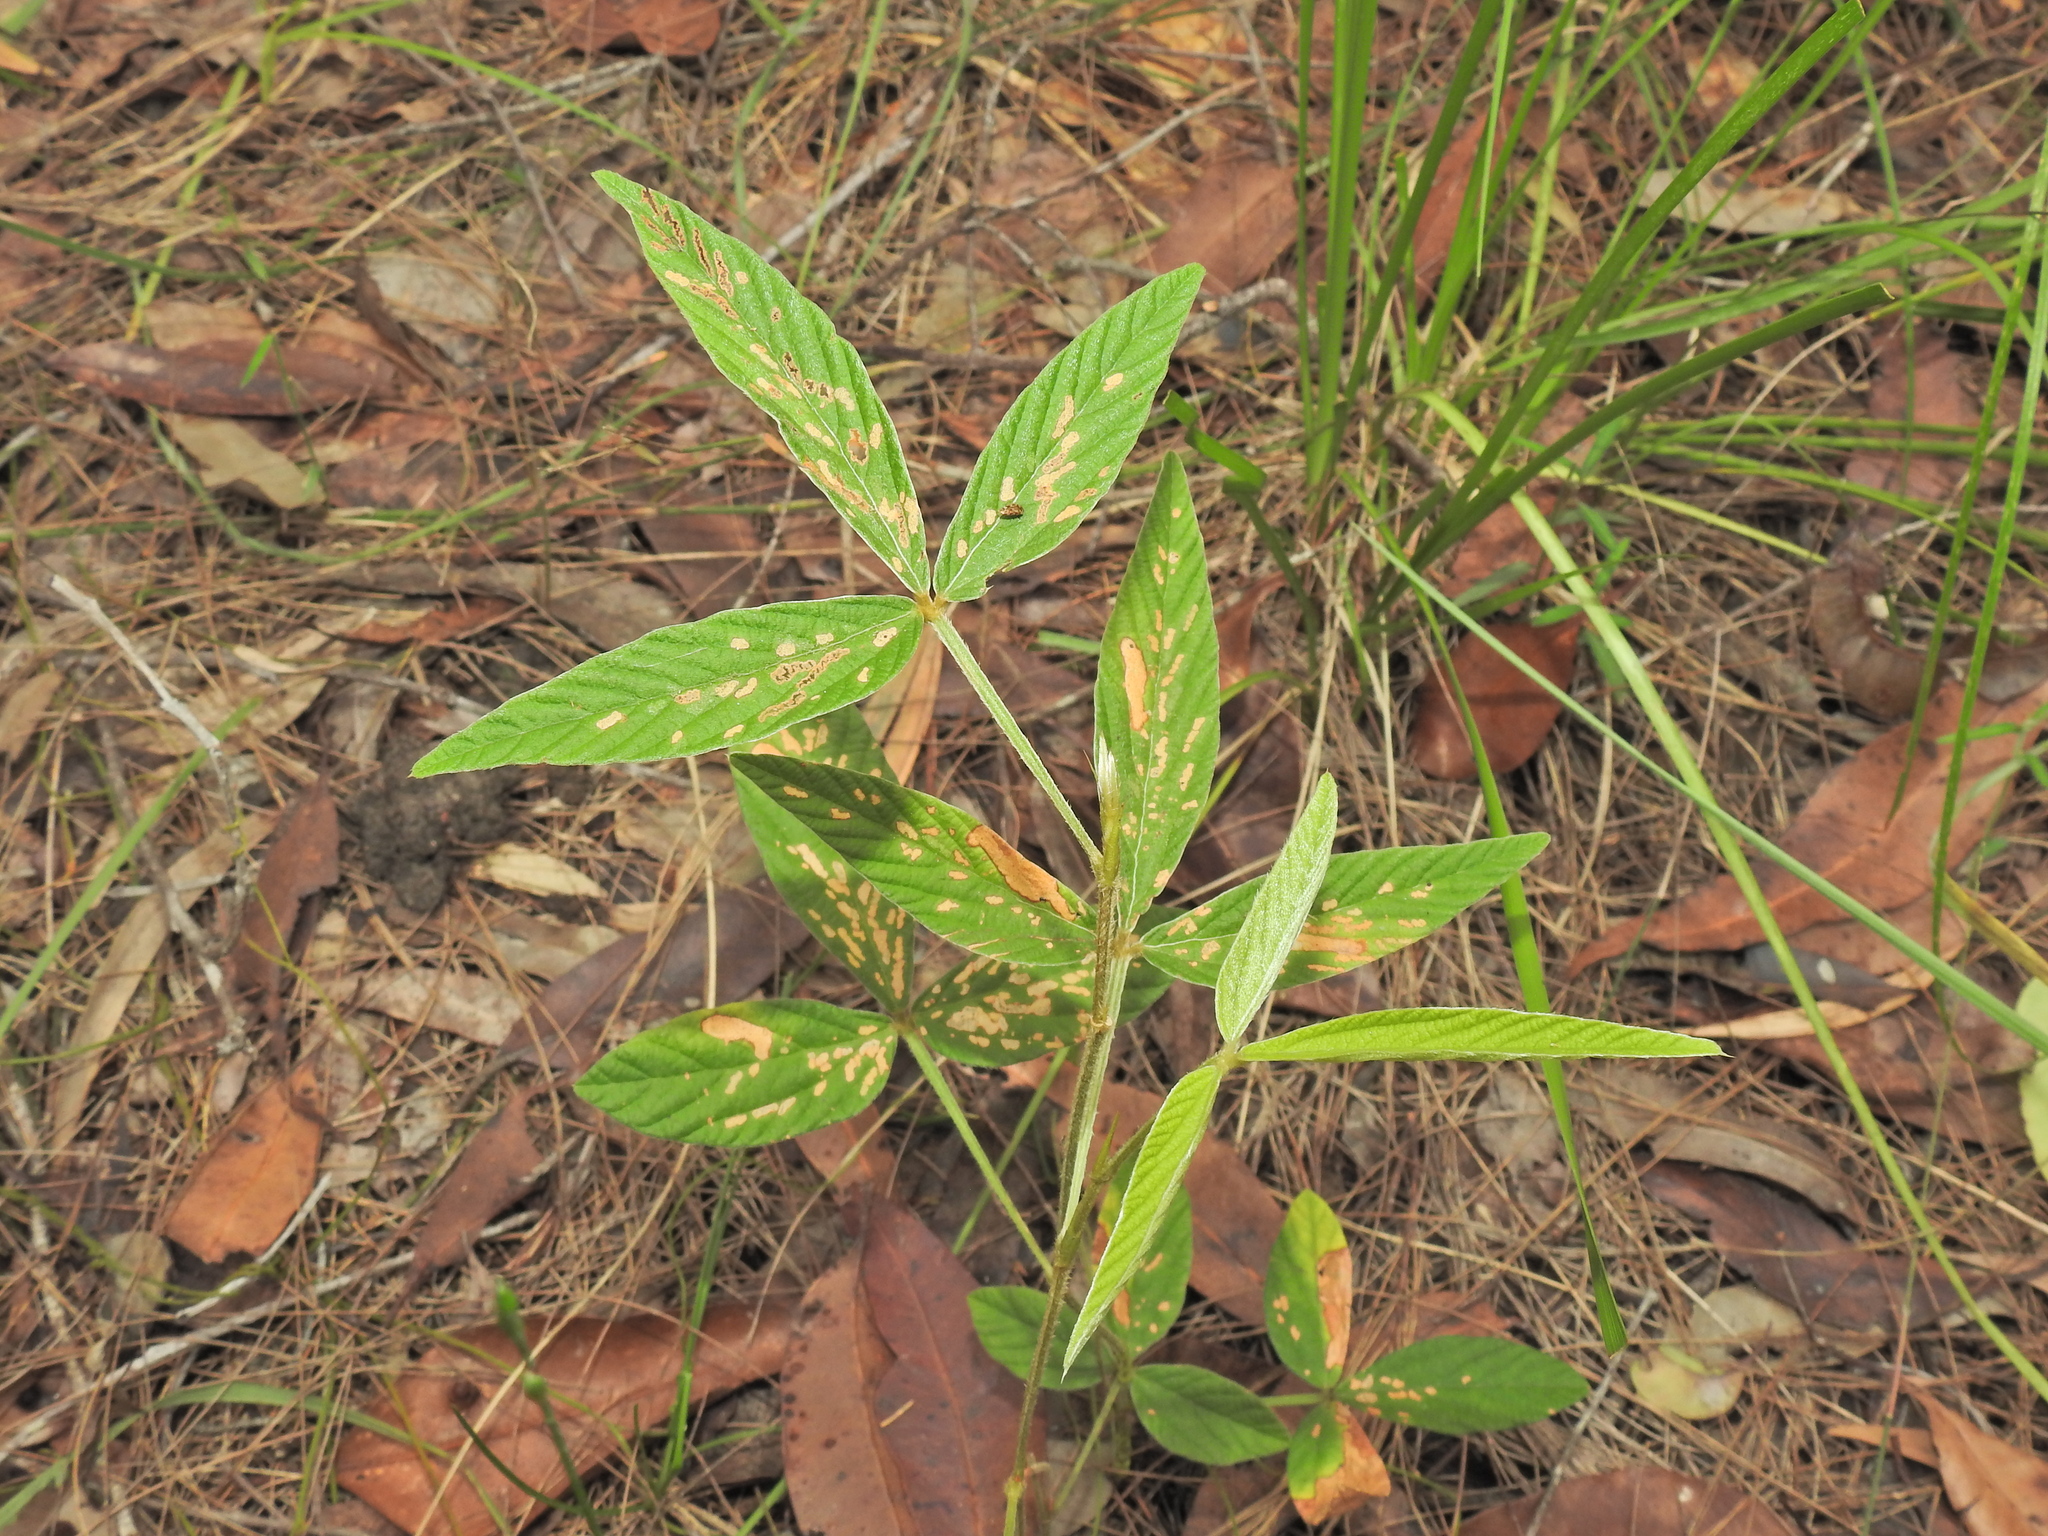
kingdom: Plantae
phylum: Tracheophyta
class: Magnoliopsida
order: Fabales
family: Fabaceae
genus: Flemingia
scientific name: Flemingia parviflora
